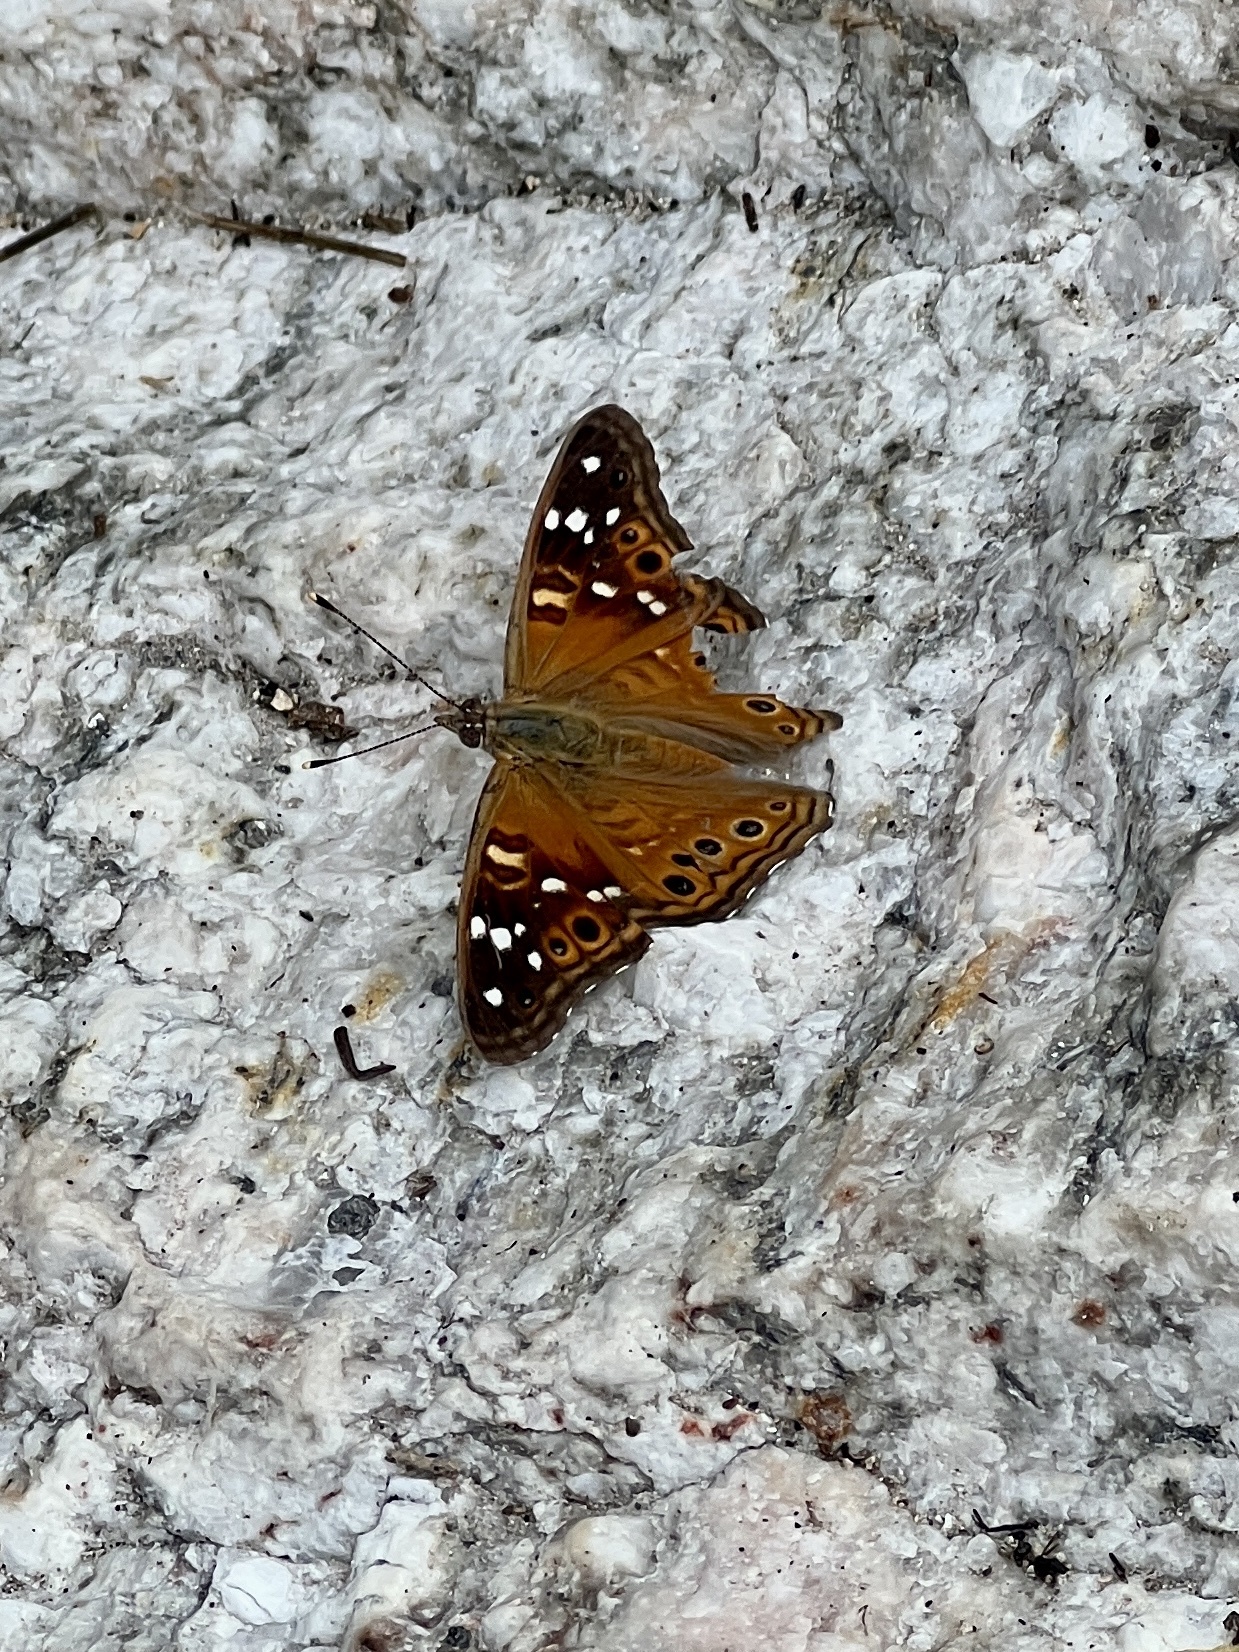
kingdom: Animalia
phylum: Arthropoda
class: Insecta
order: Lepidoptera
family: Nymphalidae
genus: Asterocampa
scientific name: Asterocampa leilia
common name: Empress leilia
